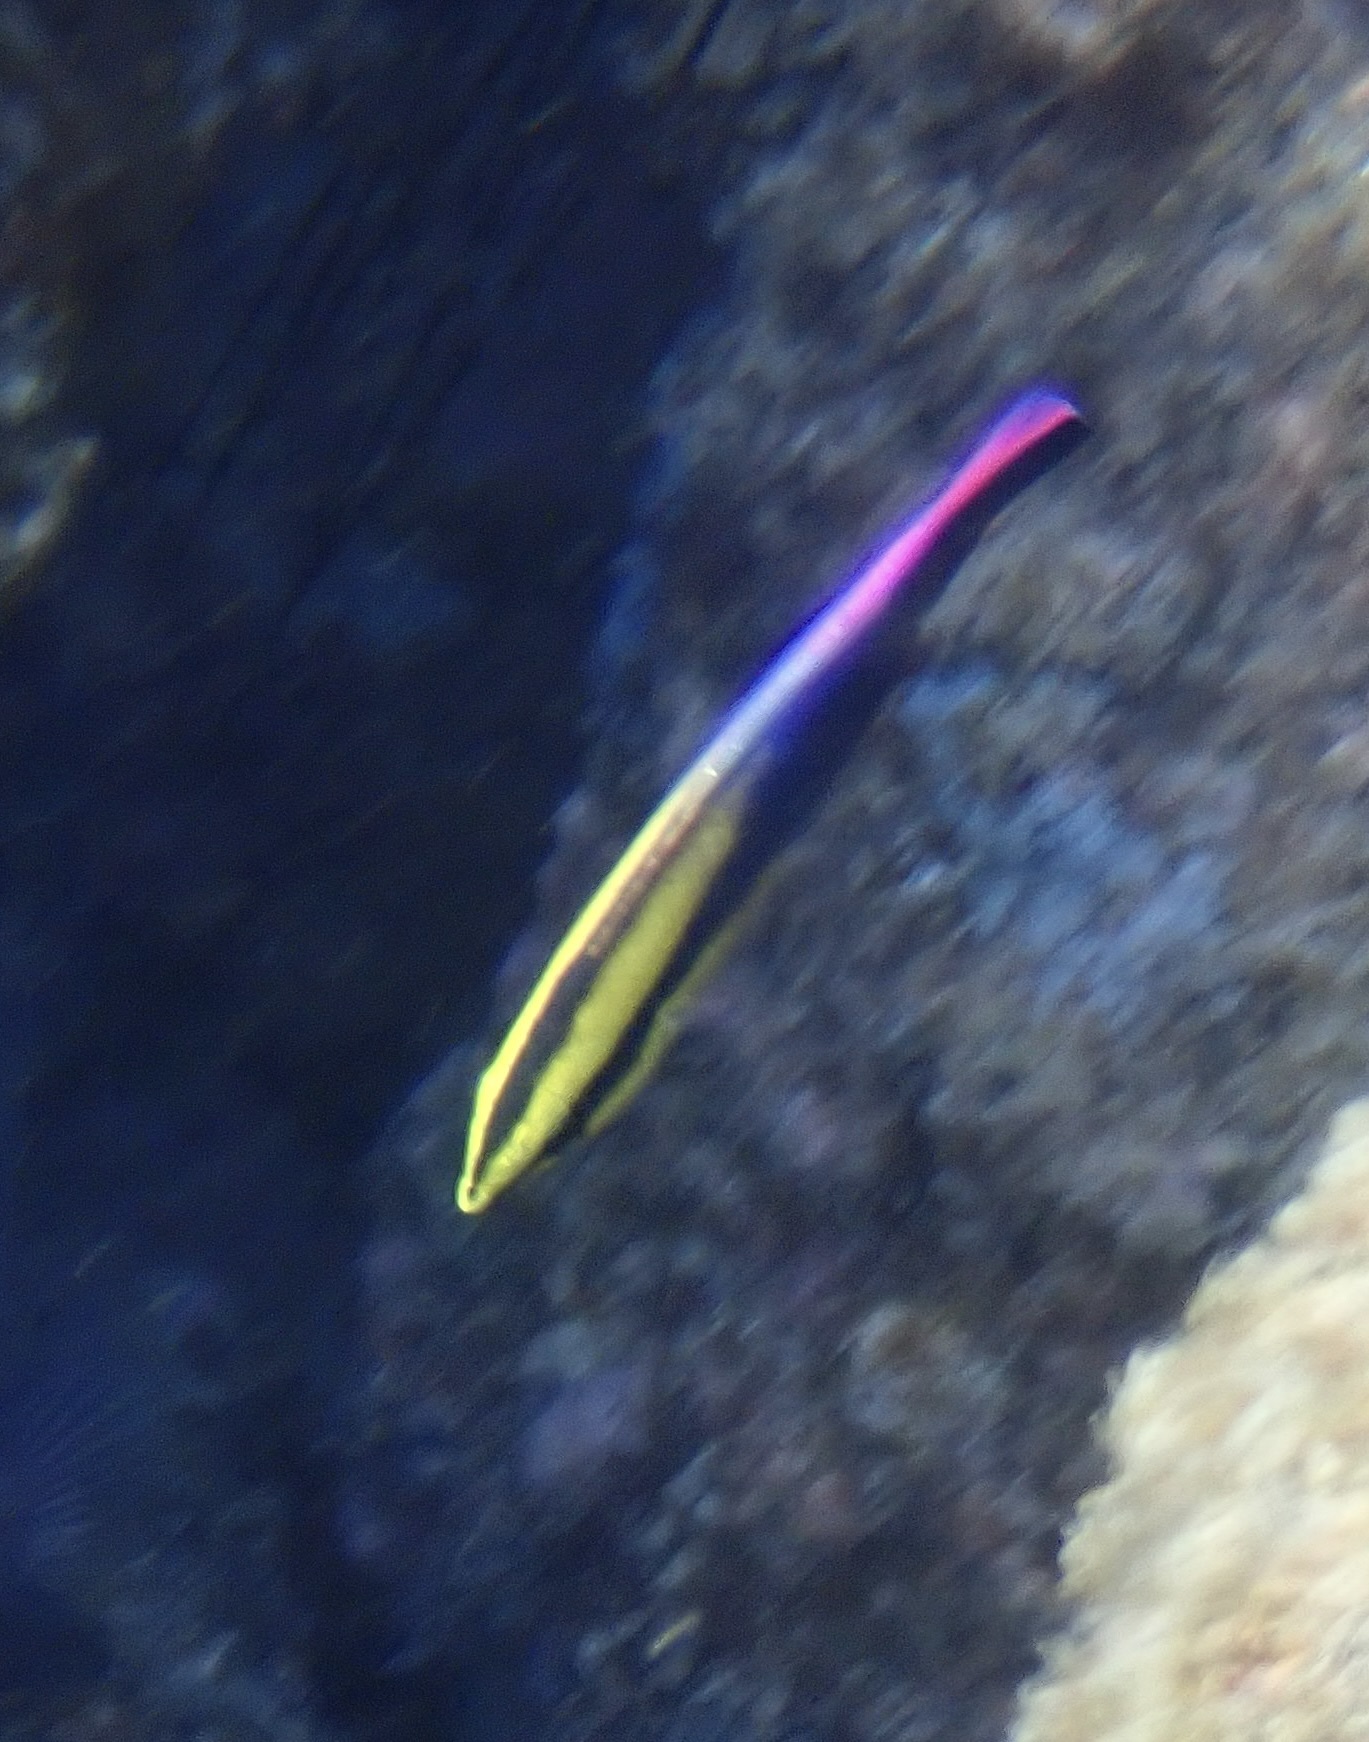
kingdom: Animalia
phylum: Chordata
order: Perciformes
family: Labridae
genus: Labroides
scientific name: Labroides phthirophagus
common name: Cleaner wrasse
